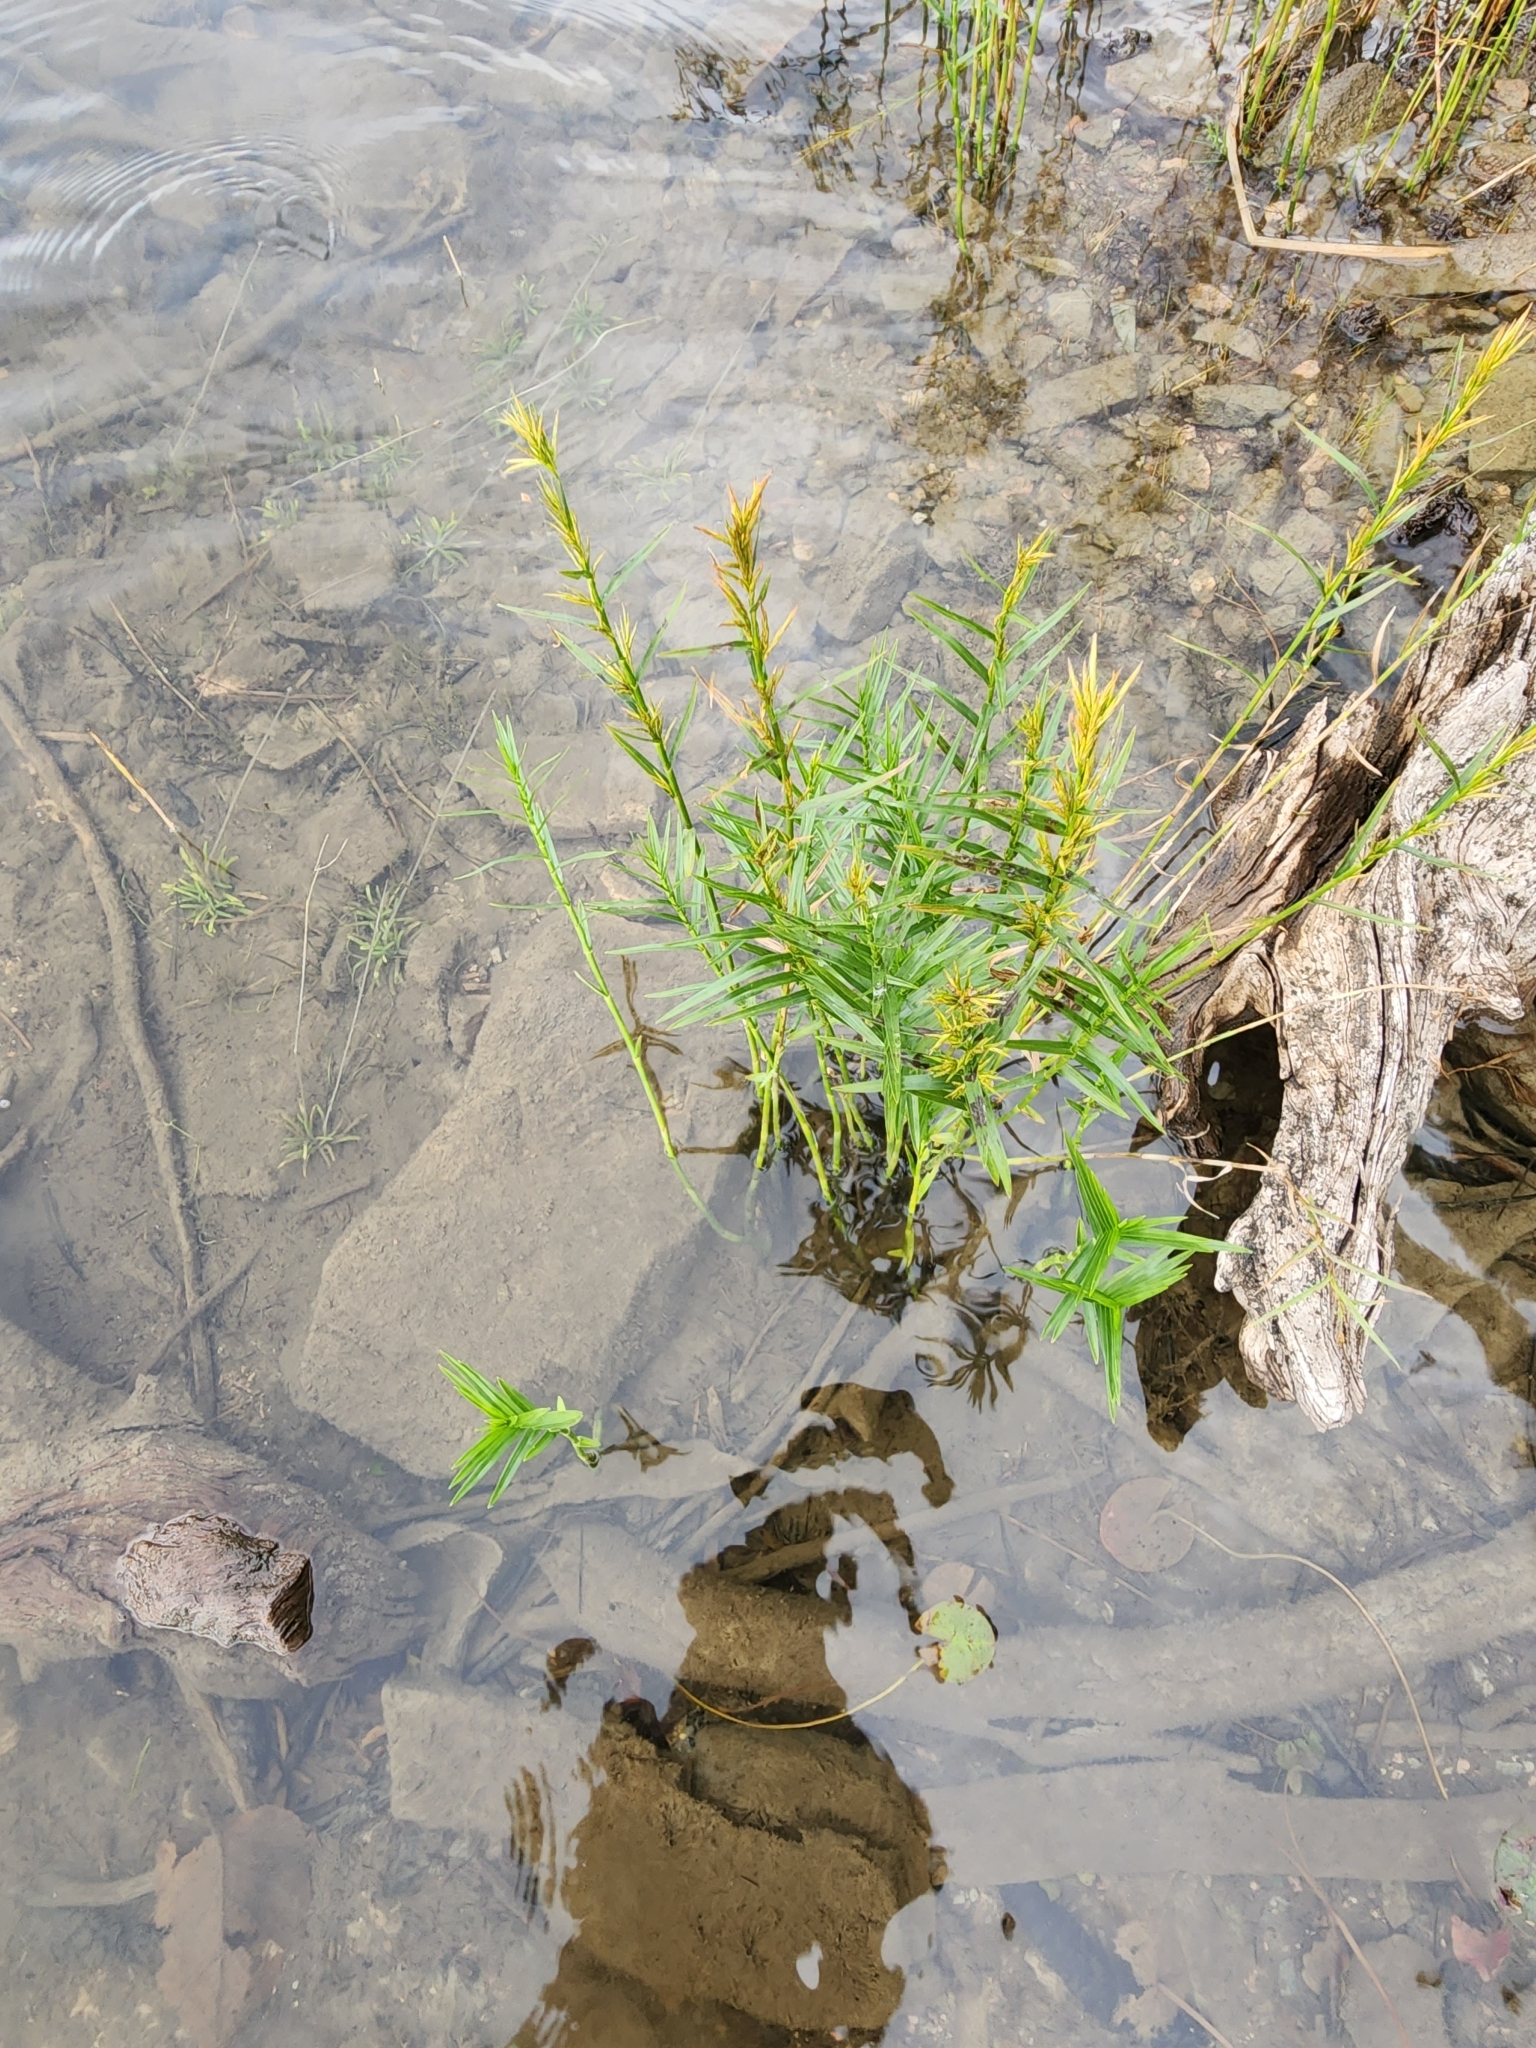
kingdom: Plantae
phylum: Tracheophyta
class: Liliopsida
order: Poales
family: Cyperaceae
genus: Dulichium
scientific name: Dulichium arundinaceum
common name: Three-way sedge
